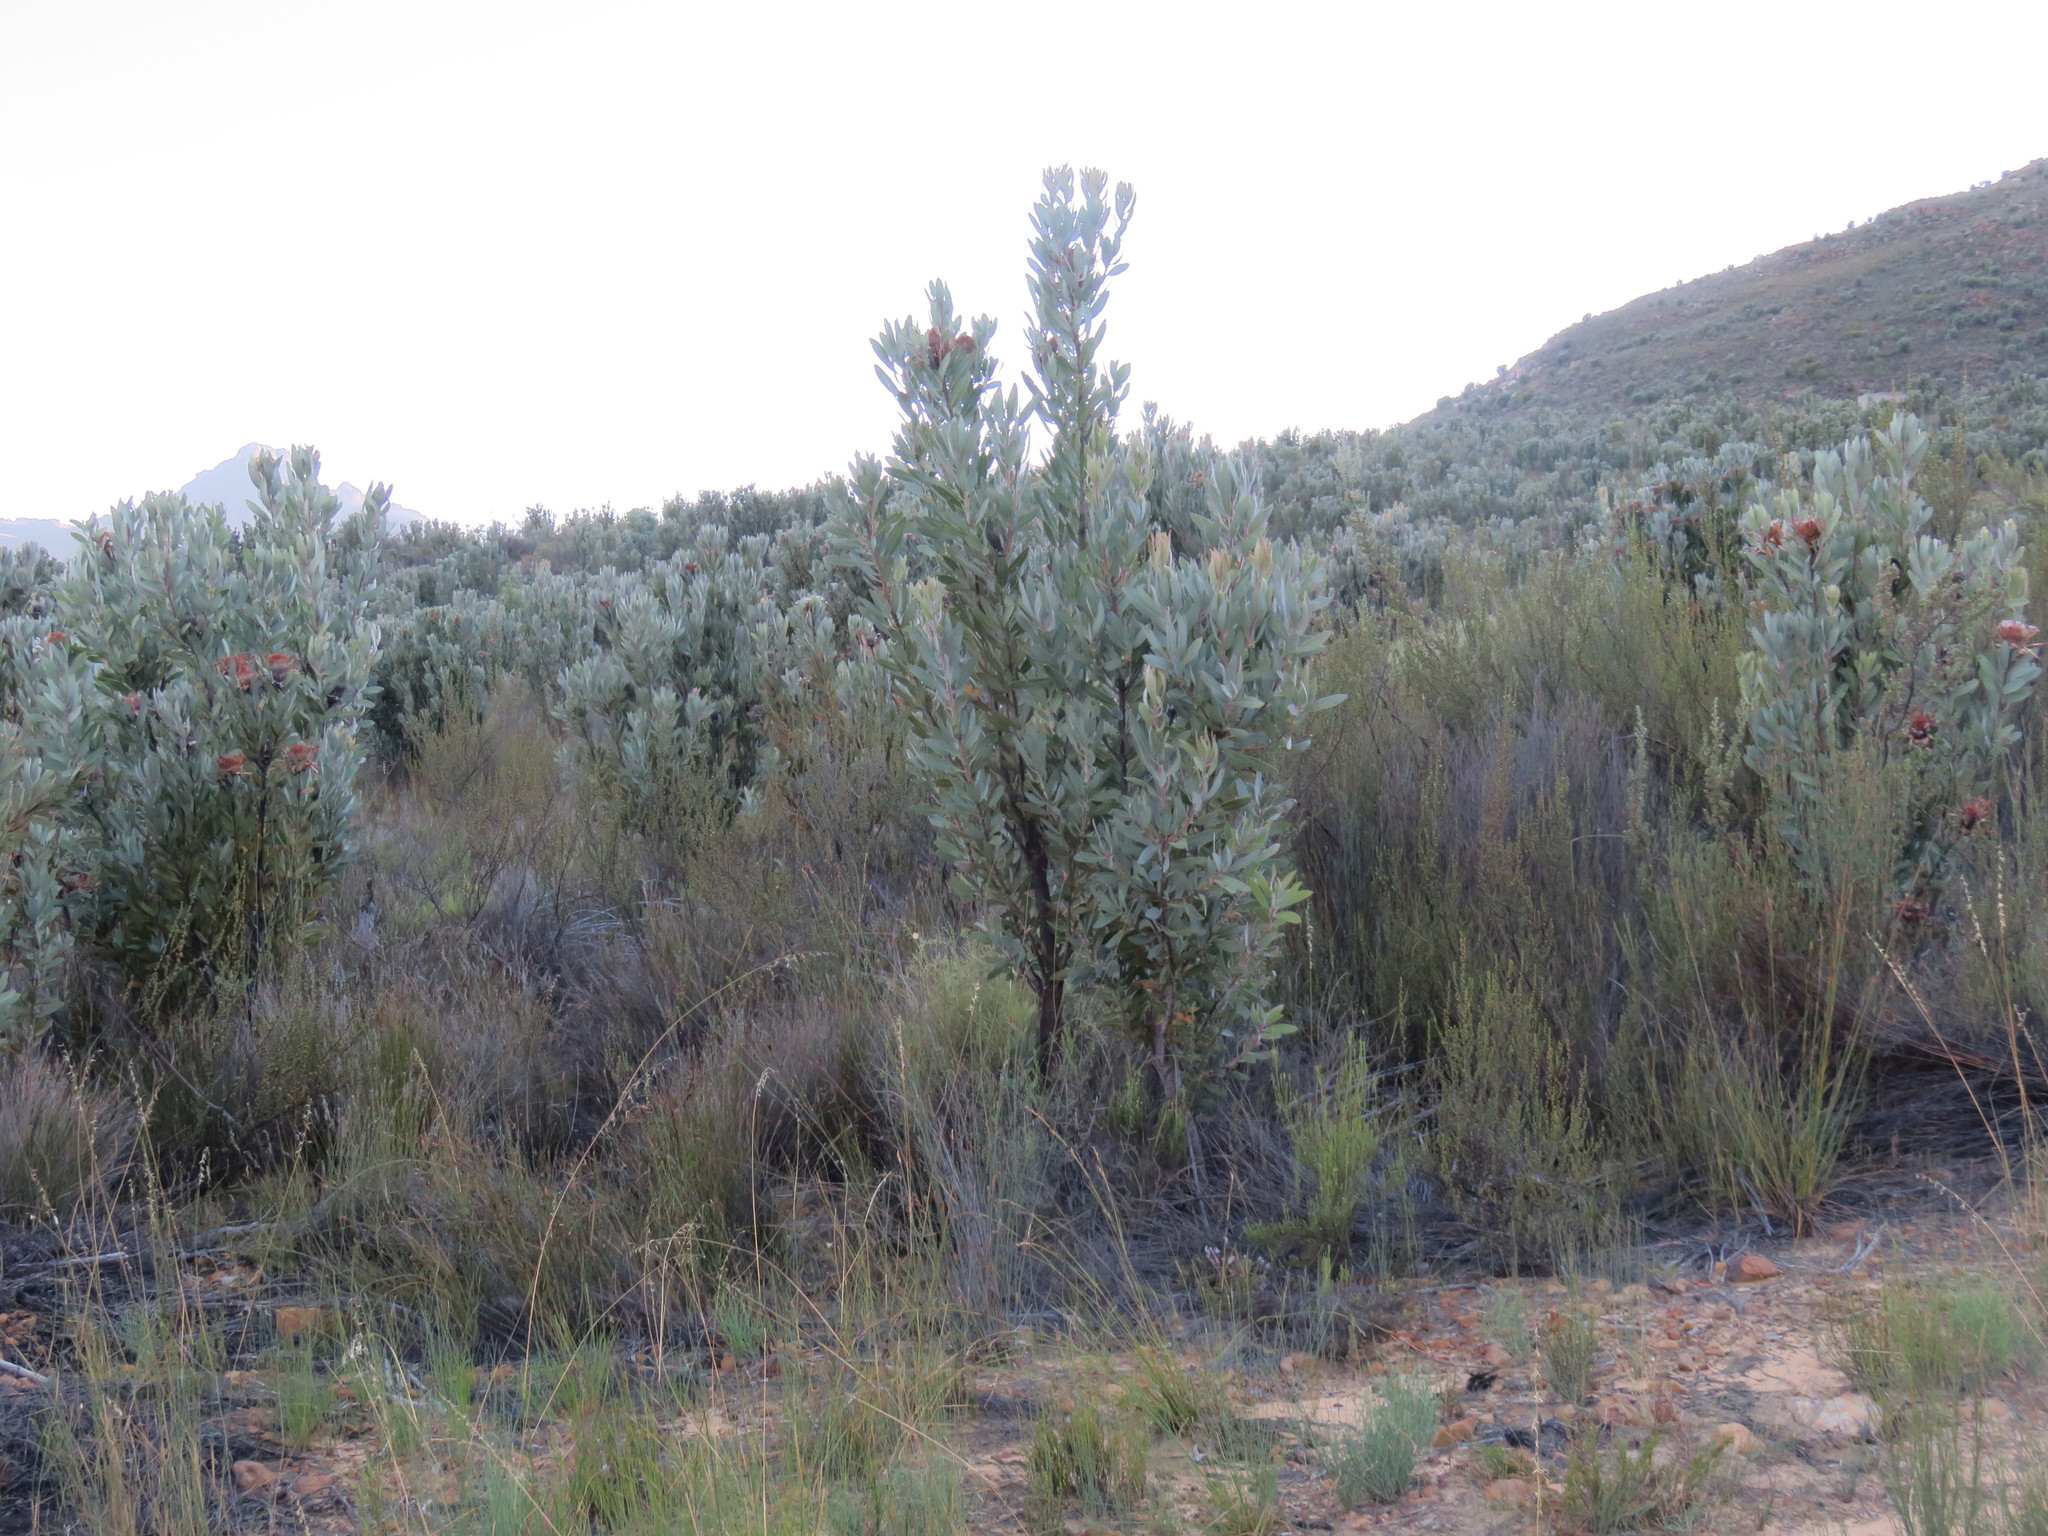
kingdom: Plantae
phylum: Tracheophyta
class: Magnoliopsida
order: Proteales
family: Proteaceae
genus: Protea
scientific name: Protea laurifolia
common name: Grey-leaf sugarbsh
